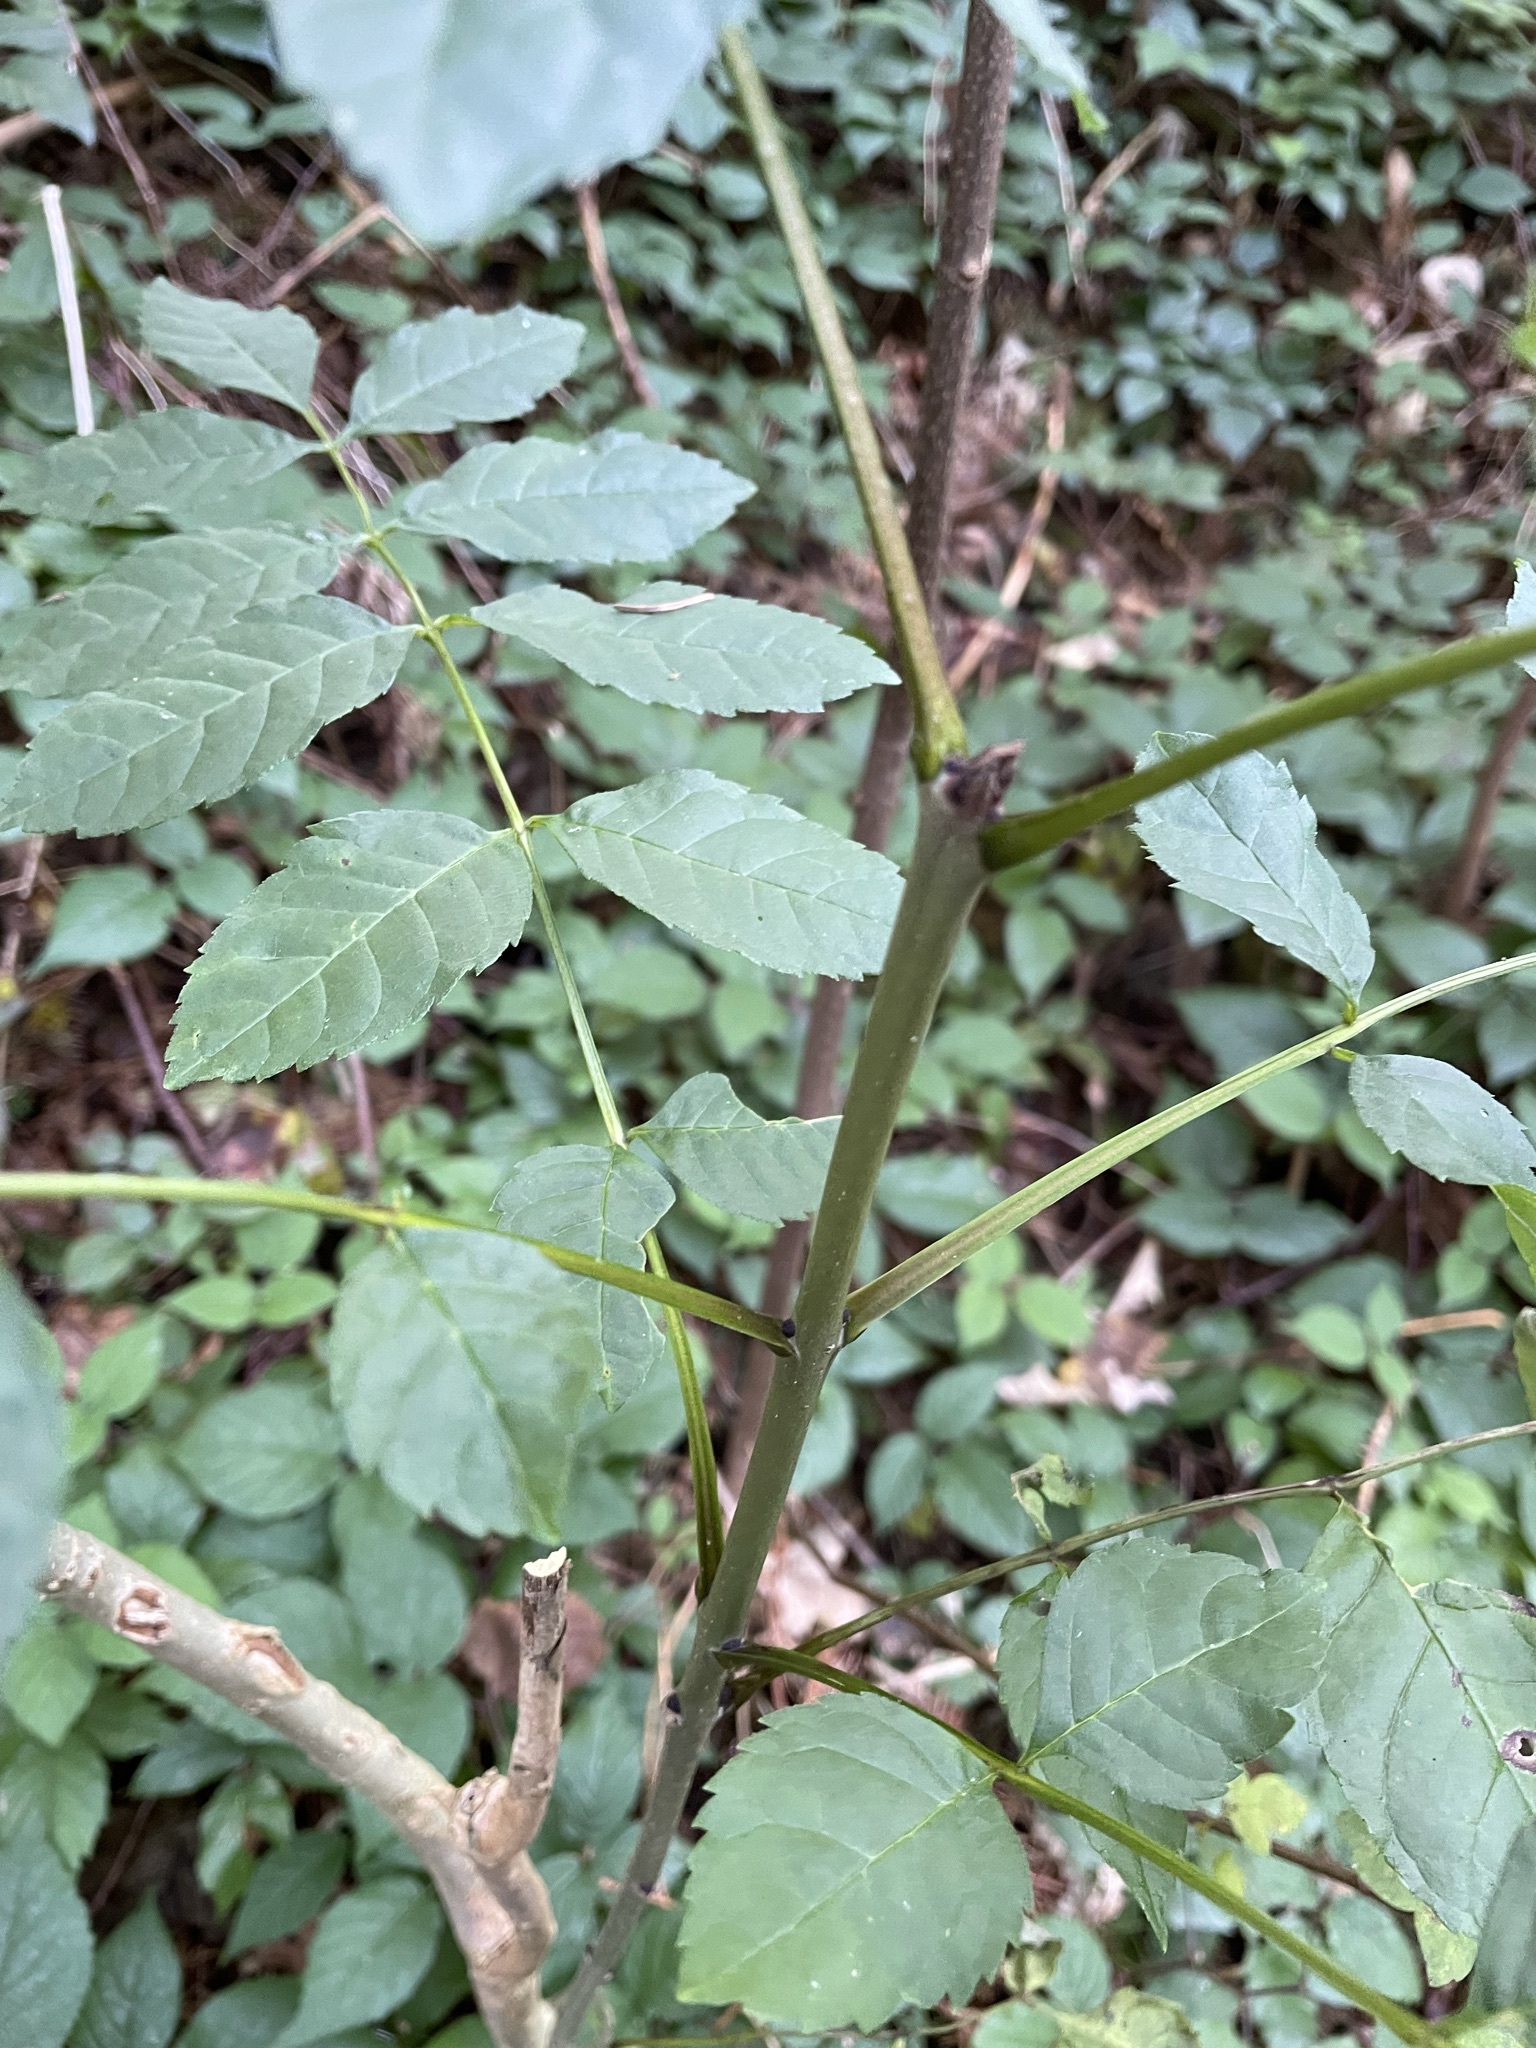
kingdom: Plantae
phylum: Tracheophyta
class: Magnoliopsida
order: Lamiales
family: Oleaceae
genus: Fraxinus
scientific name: Fraxinus excelsior
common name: European ash
